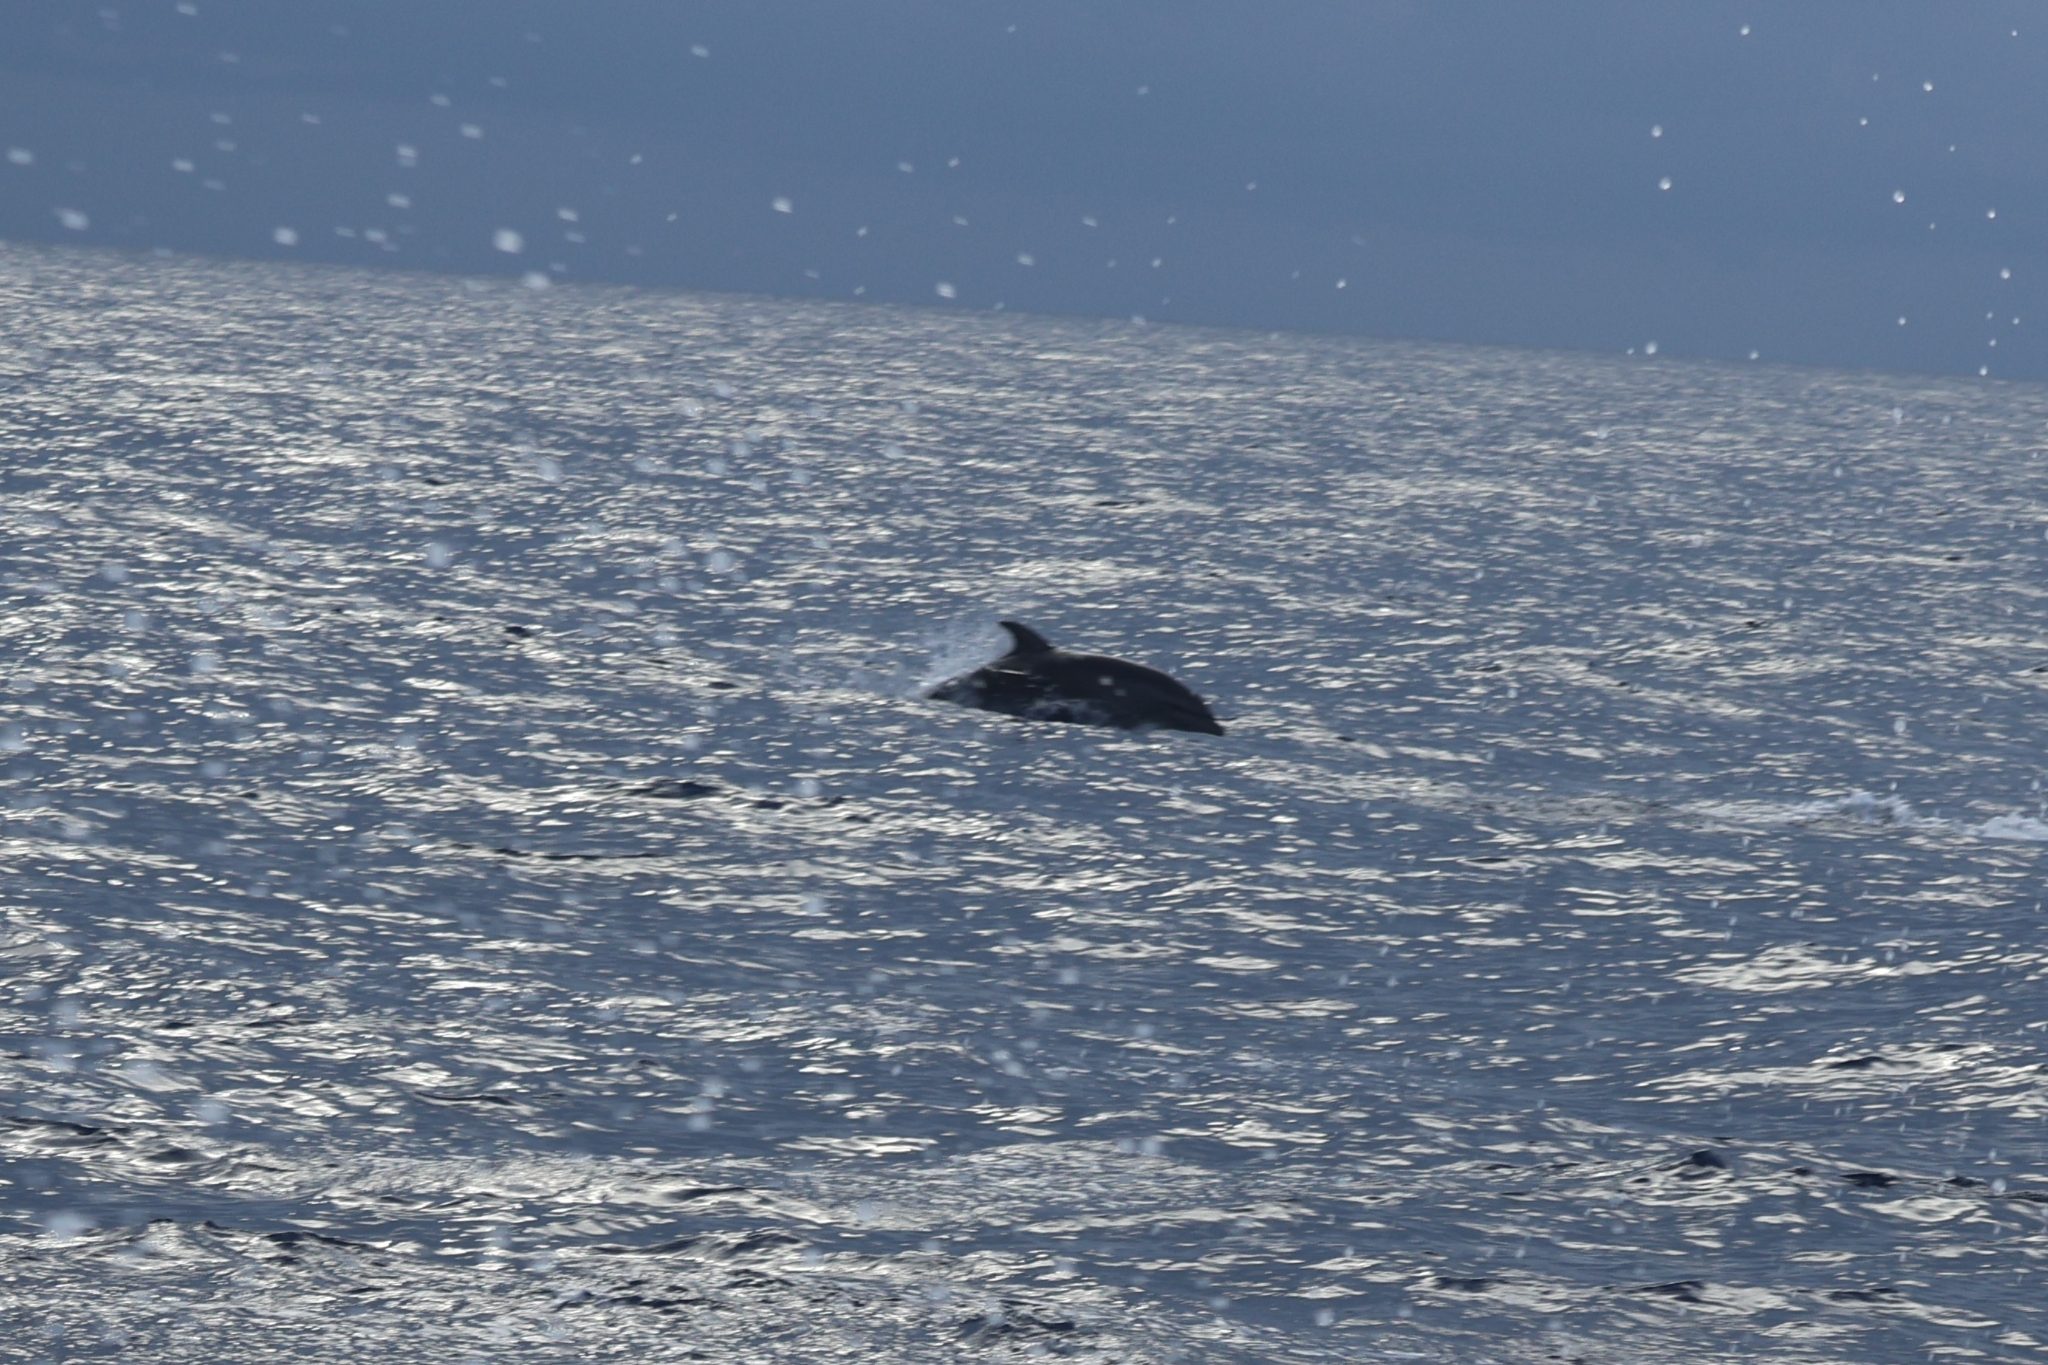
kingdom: Animalia
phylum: Chordata
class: Mammalia
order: Cetacea
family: Delphinidae
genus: Tursiops
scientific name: Tursiops truncatus
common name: Bottlenose dolphin
